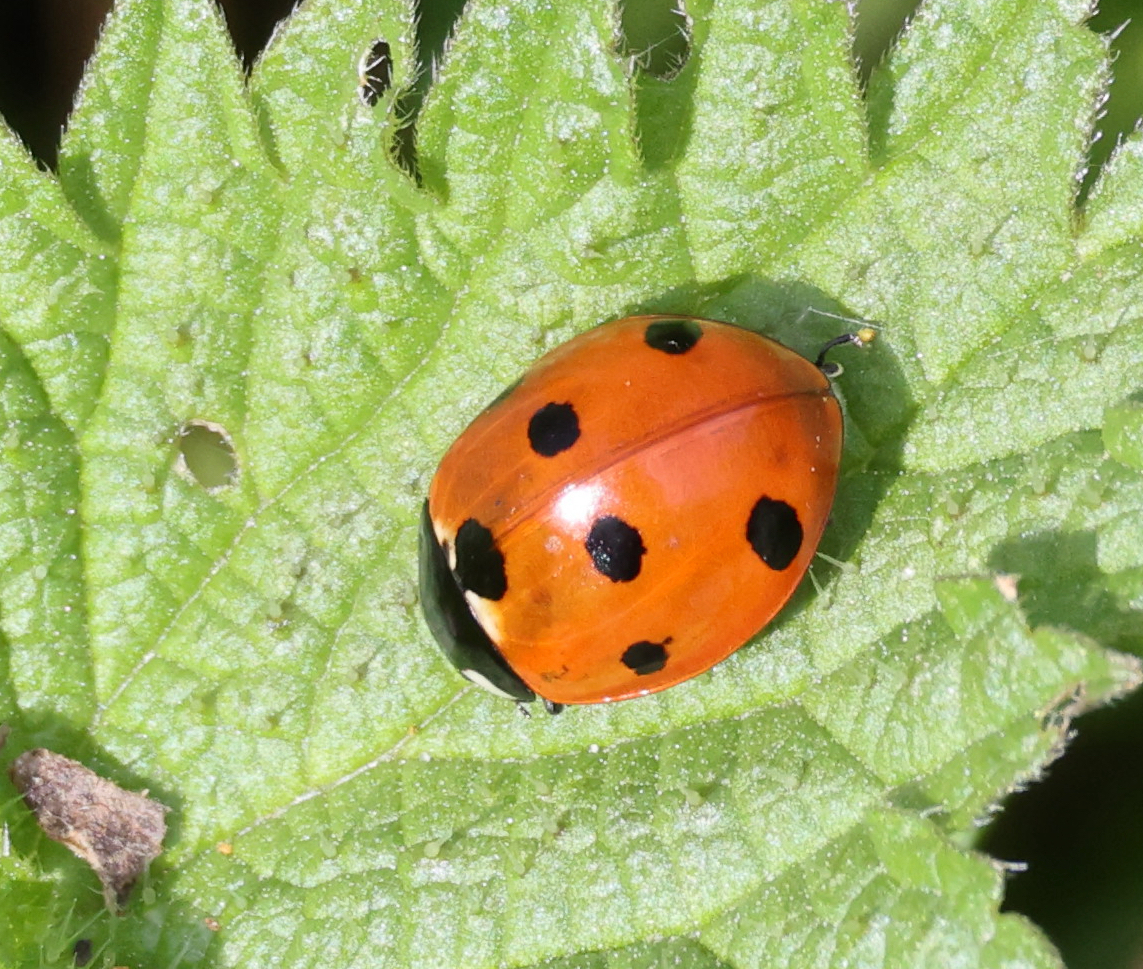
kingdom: Animalia
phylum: Arthropoda
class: Insecta
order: Coleoptera
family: Coccinellidae
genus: Coccinella
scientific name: Coccinella septempunctata
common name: Sevenspotted lady beetle
